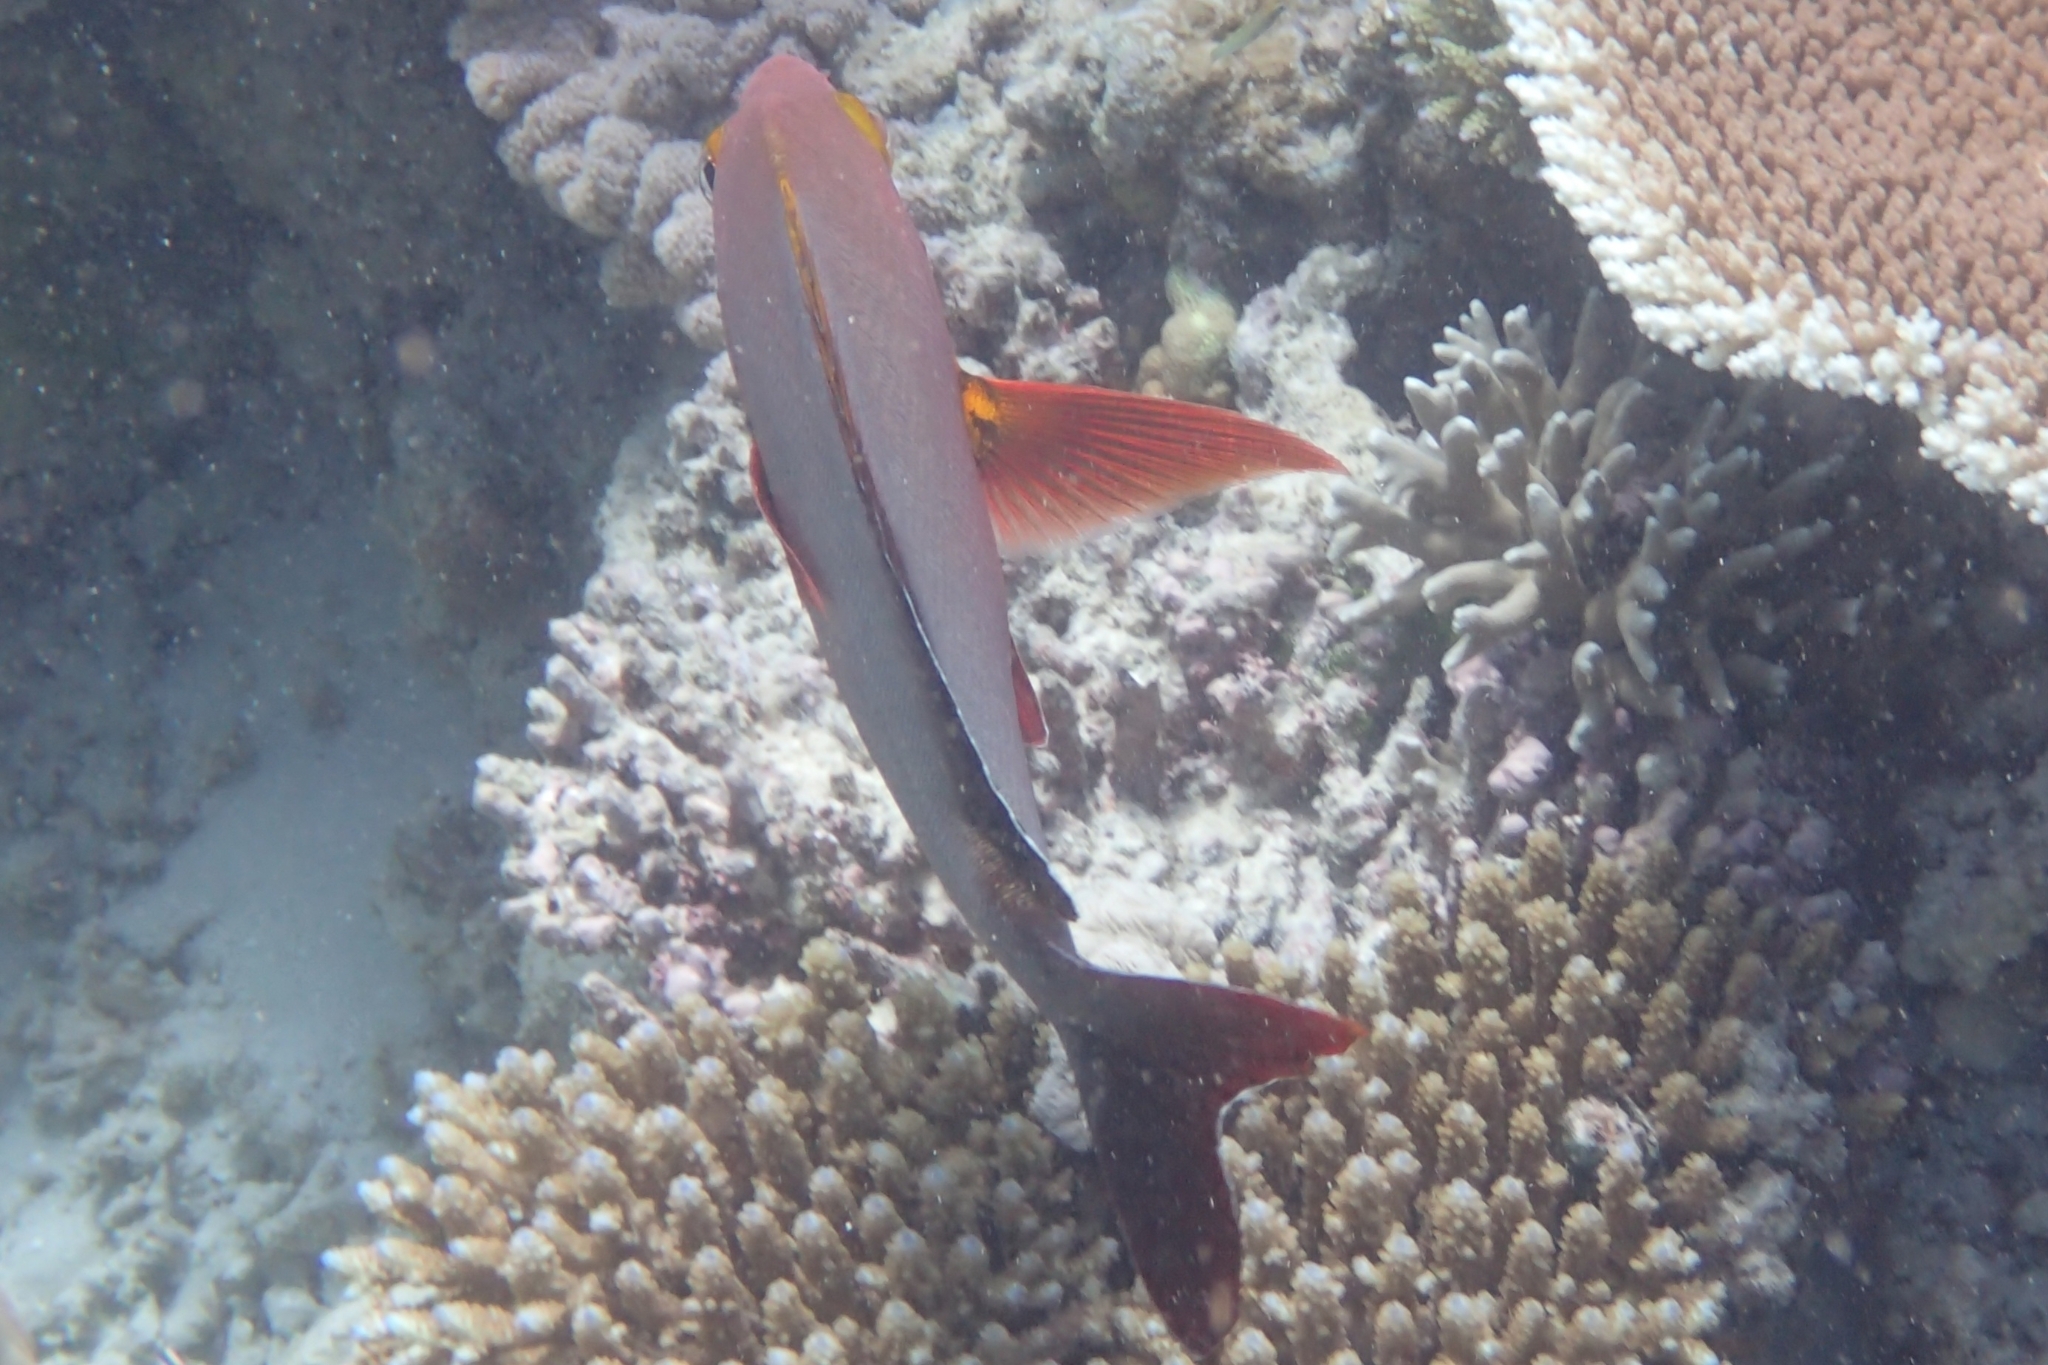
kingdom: Animalia
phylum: Chordata
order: Perciformes
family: Lutjanidae
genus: Lutjanus
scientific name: Lutjanus gibbus
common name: Humpback snapper
